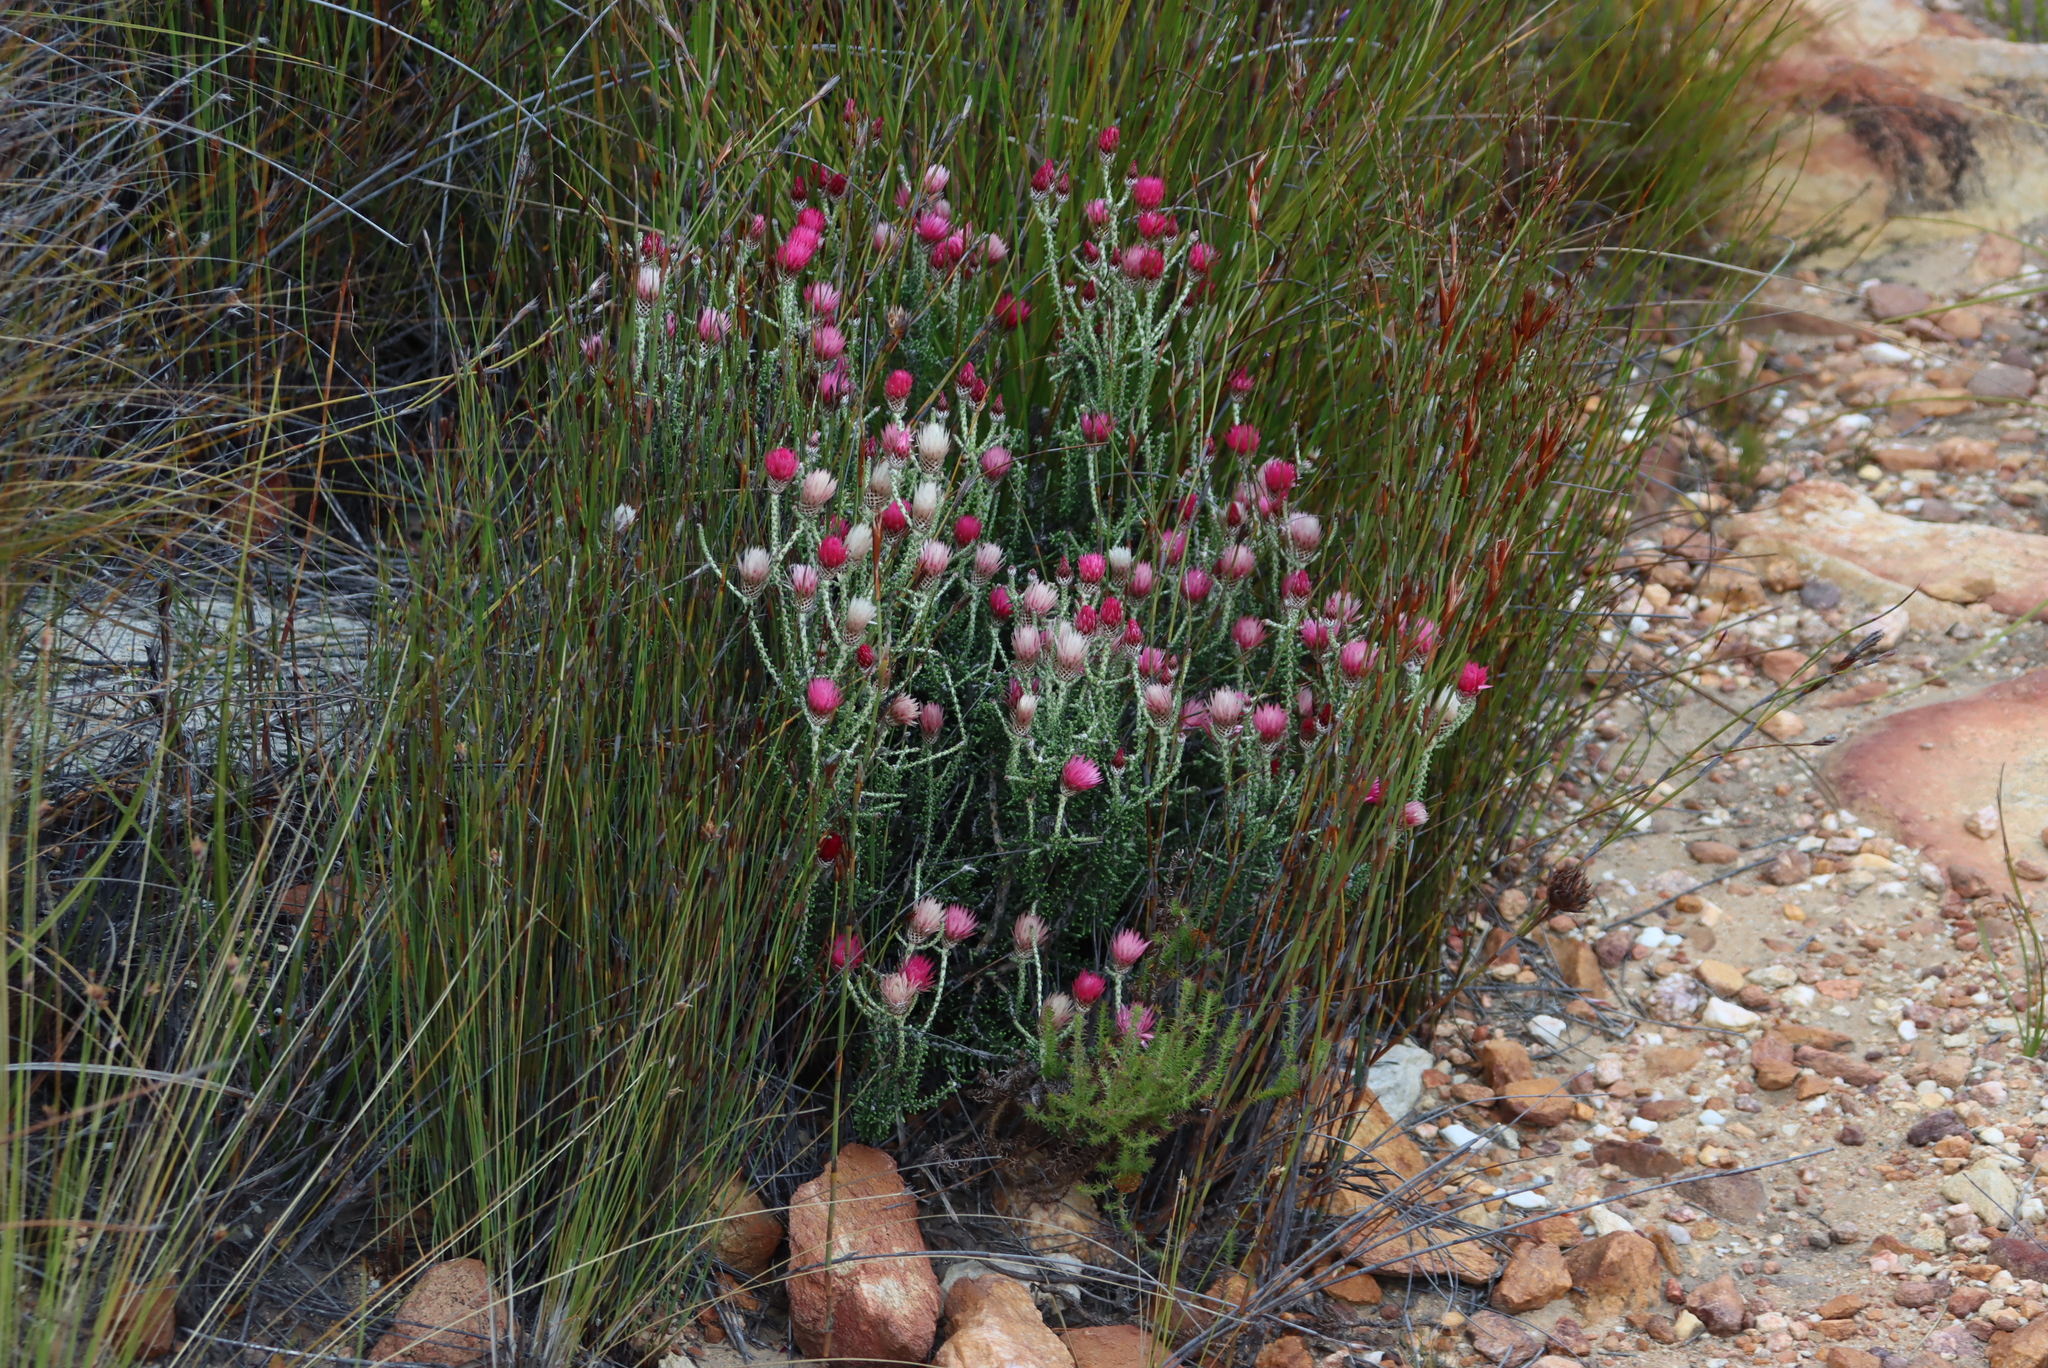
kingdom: Plantae
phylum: Tracheophyta
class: Magnoliopsida
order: Asterales
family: Asteraceae
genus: Phaenocoma
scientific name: Phaenocoma prolifera
